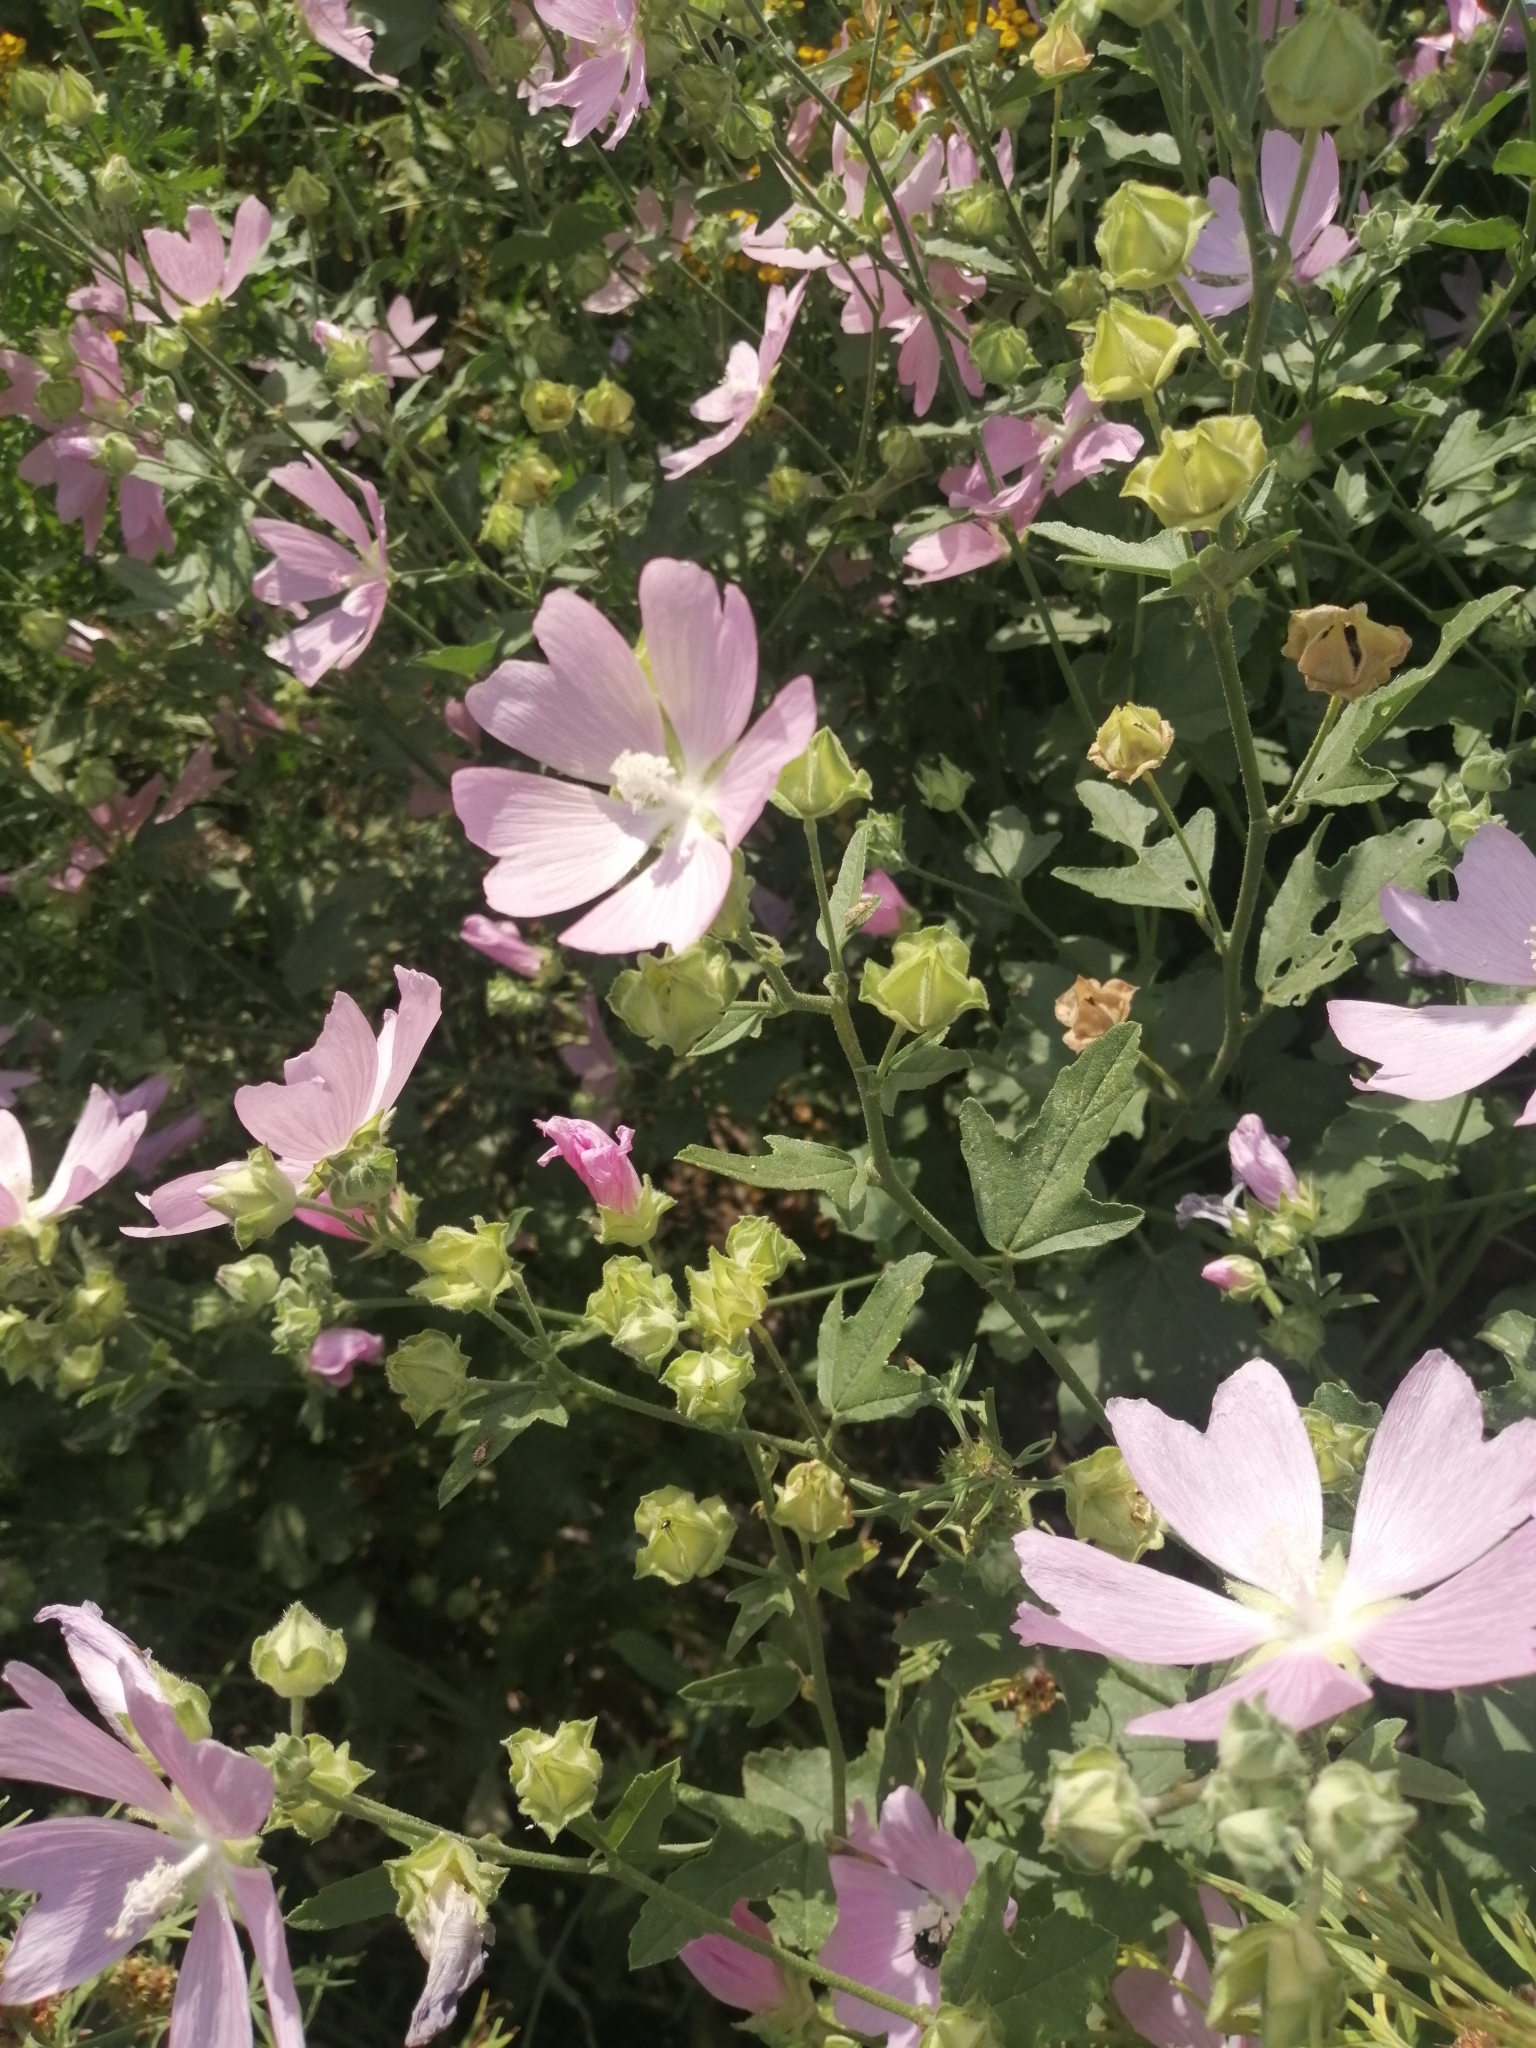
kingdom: Plantae
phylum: Tracheophyta
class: Magnoliopsida
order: Malvales
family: Malvaceae
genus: Malva
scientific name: Malva thuringiaca
